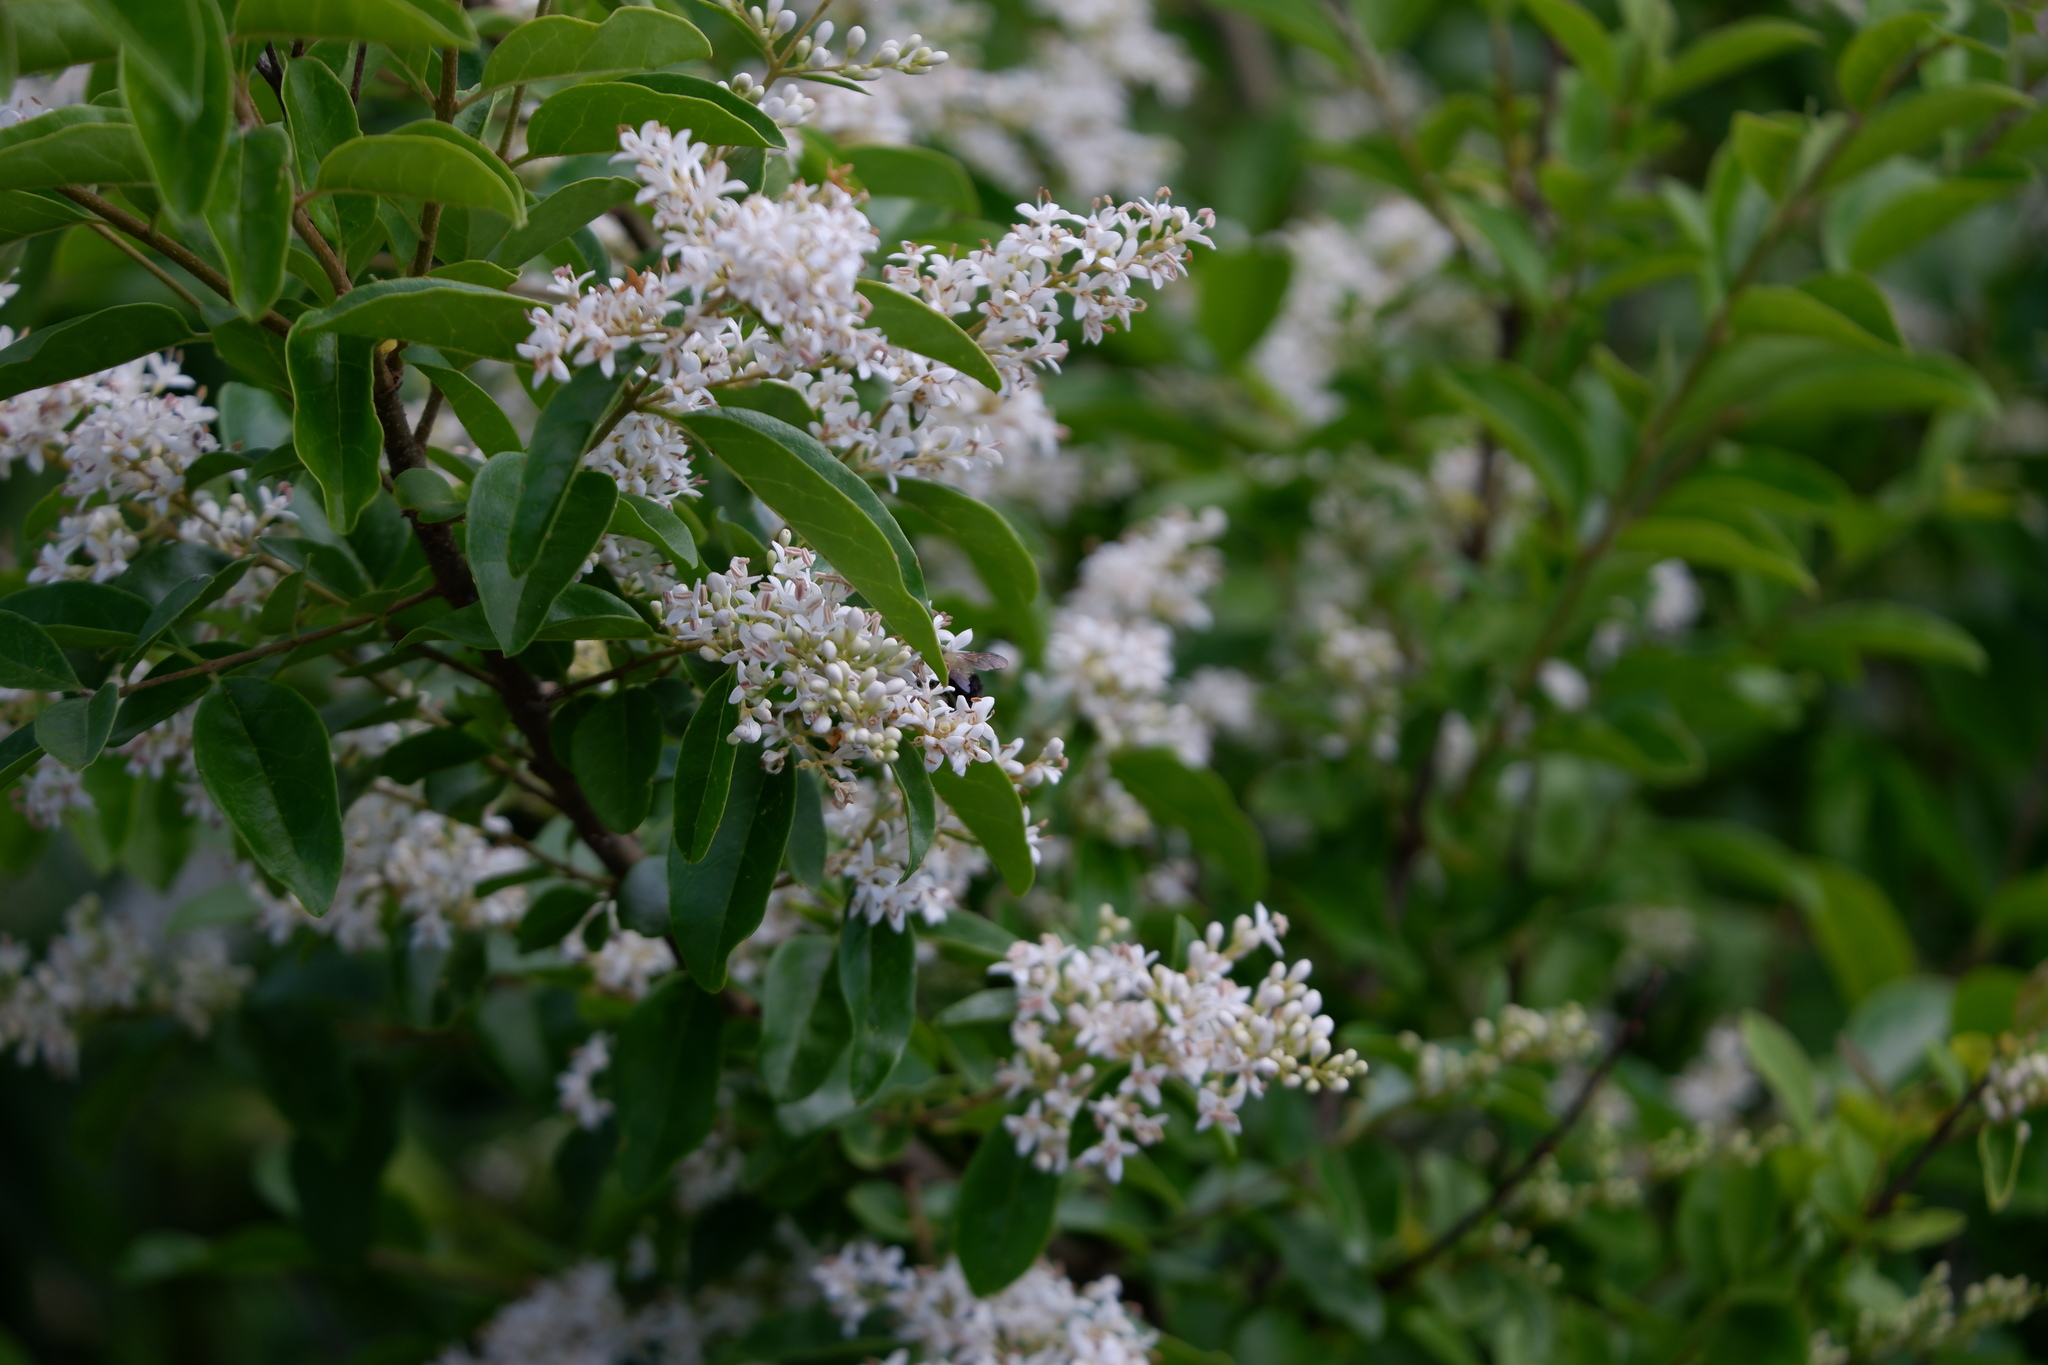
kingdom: Plantae
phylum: Tracheophyta
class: Magnoliopsida
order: Lamiales
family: Oleaceae
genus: Ligustrum
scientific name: Ligustrum sinense
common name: Chinese privet
